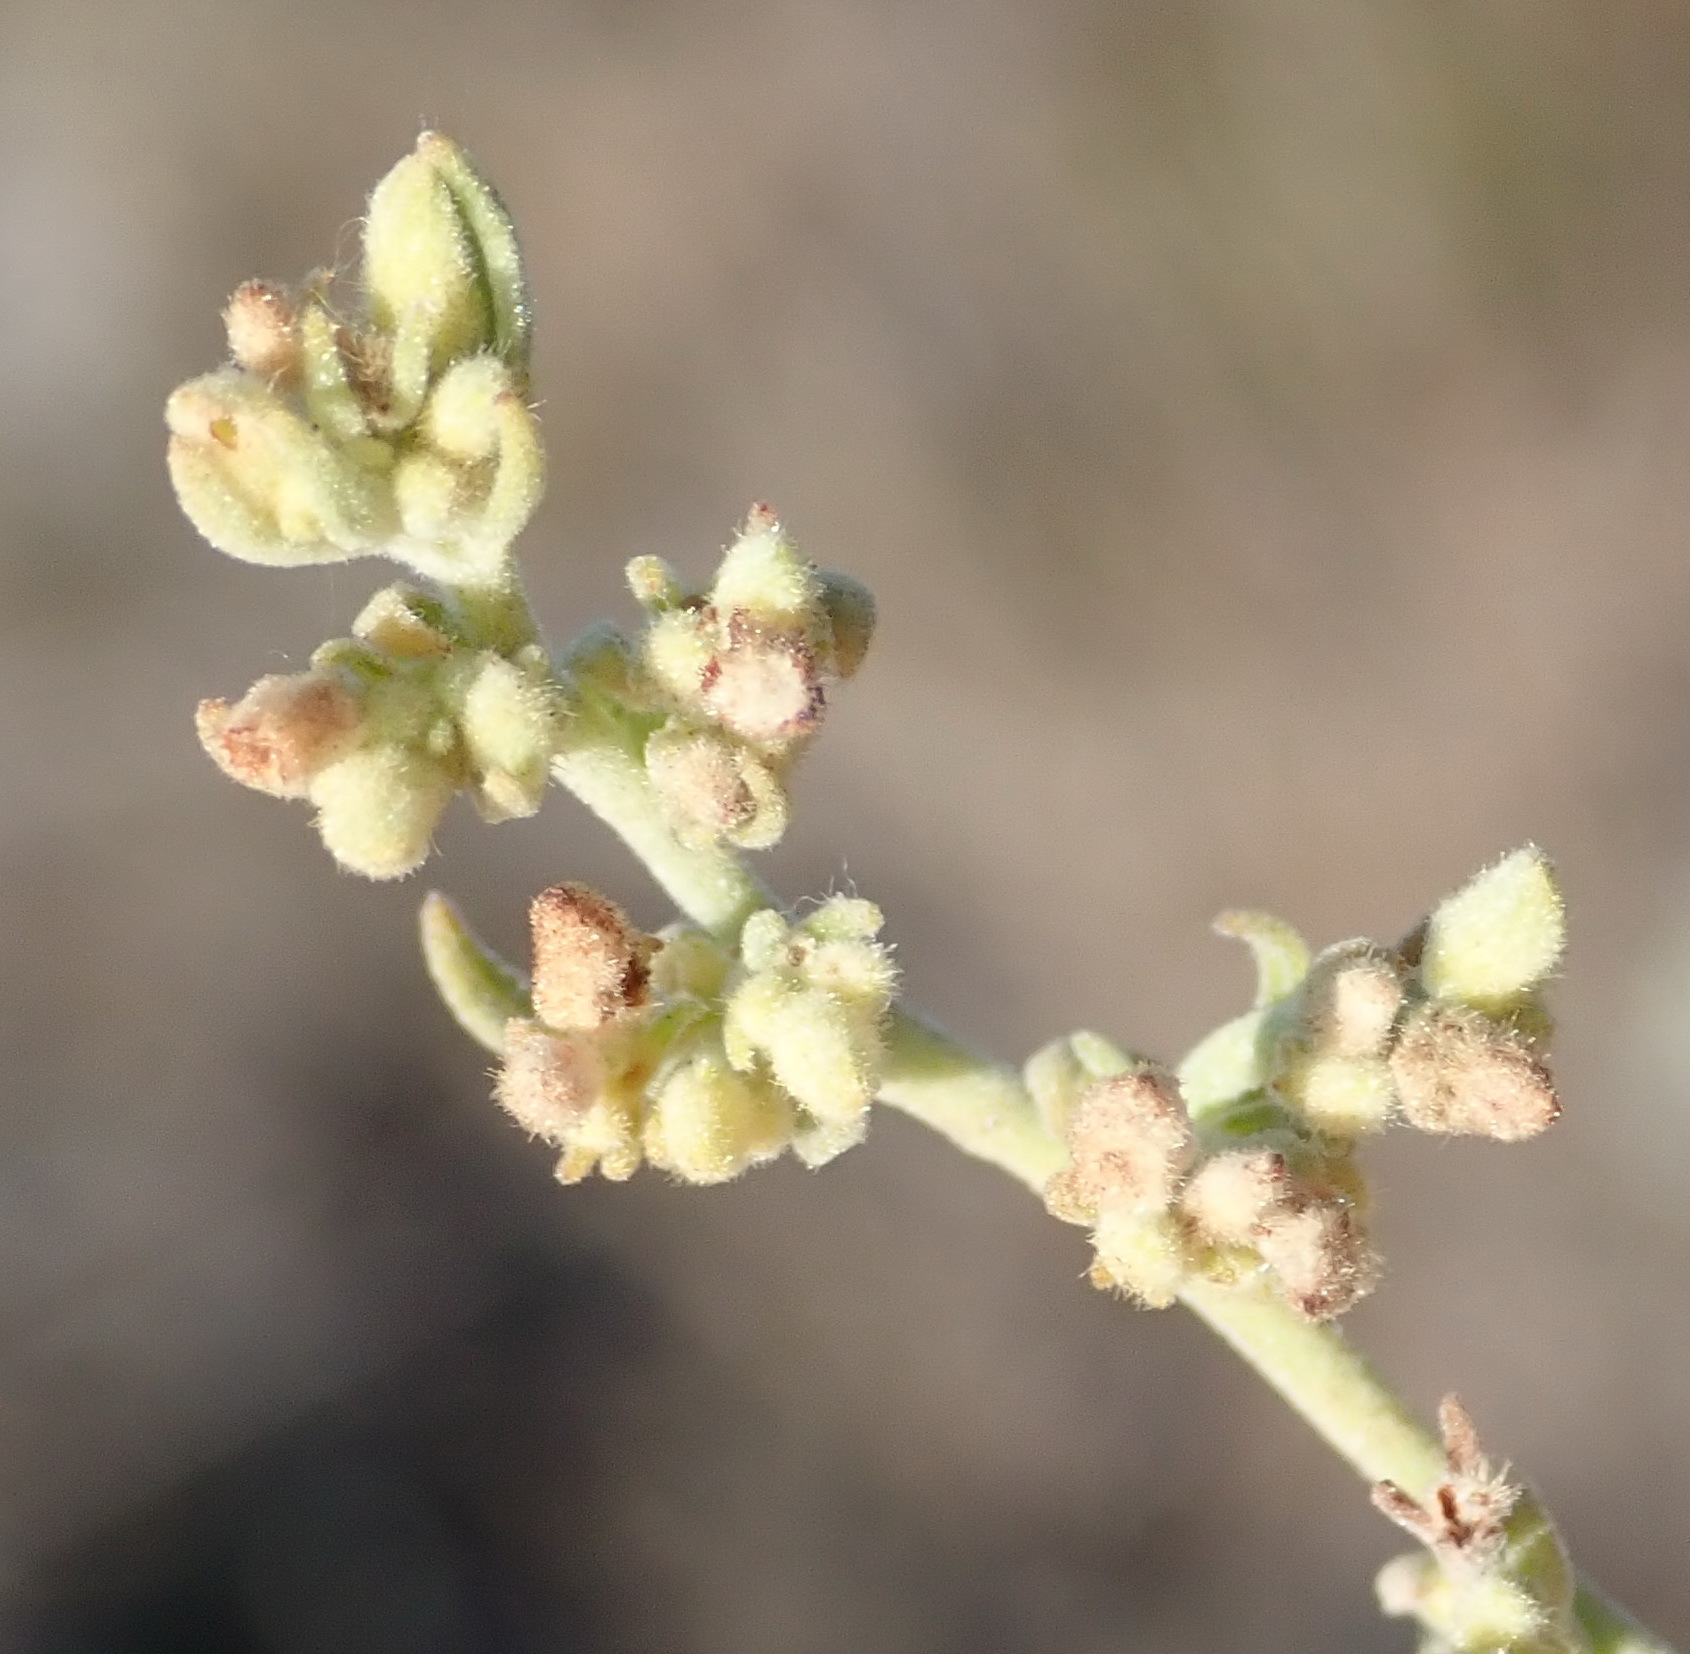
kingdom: Plantae
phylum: Tracheophyta
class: Magnoliopsida
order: Malvales
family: Malvaceae
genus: Hermannia
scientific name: Hermannia holosericea
